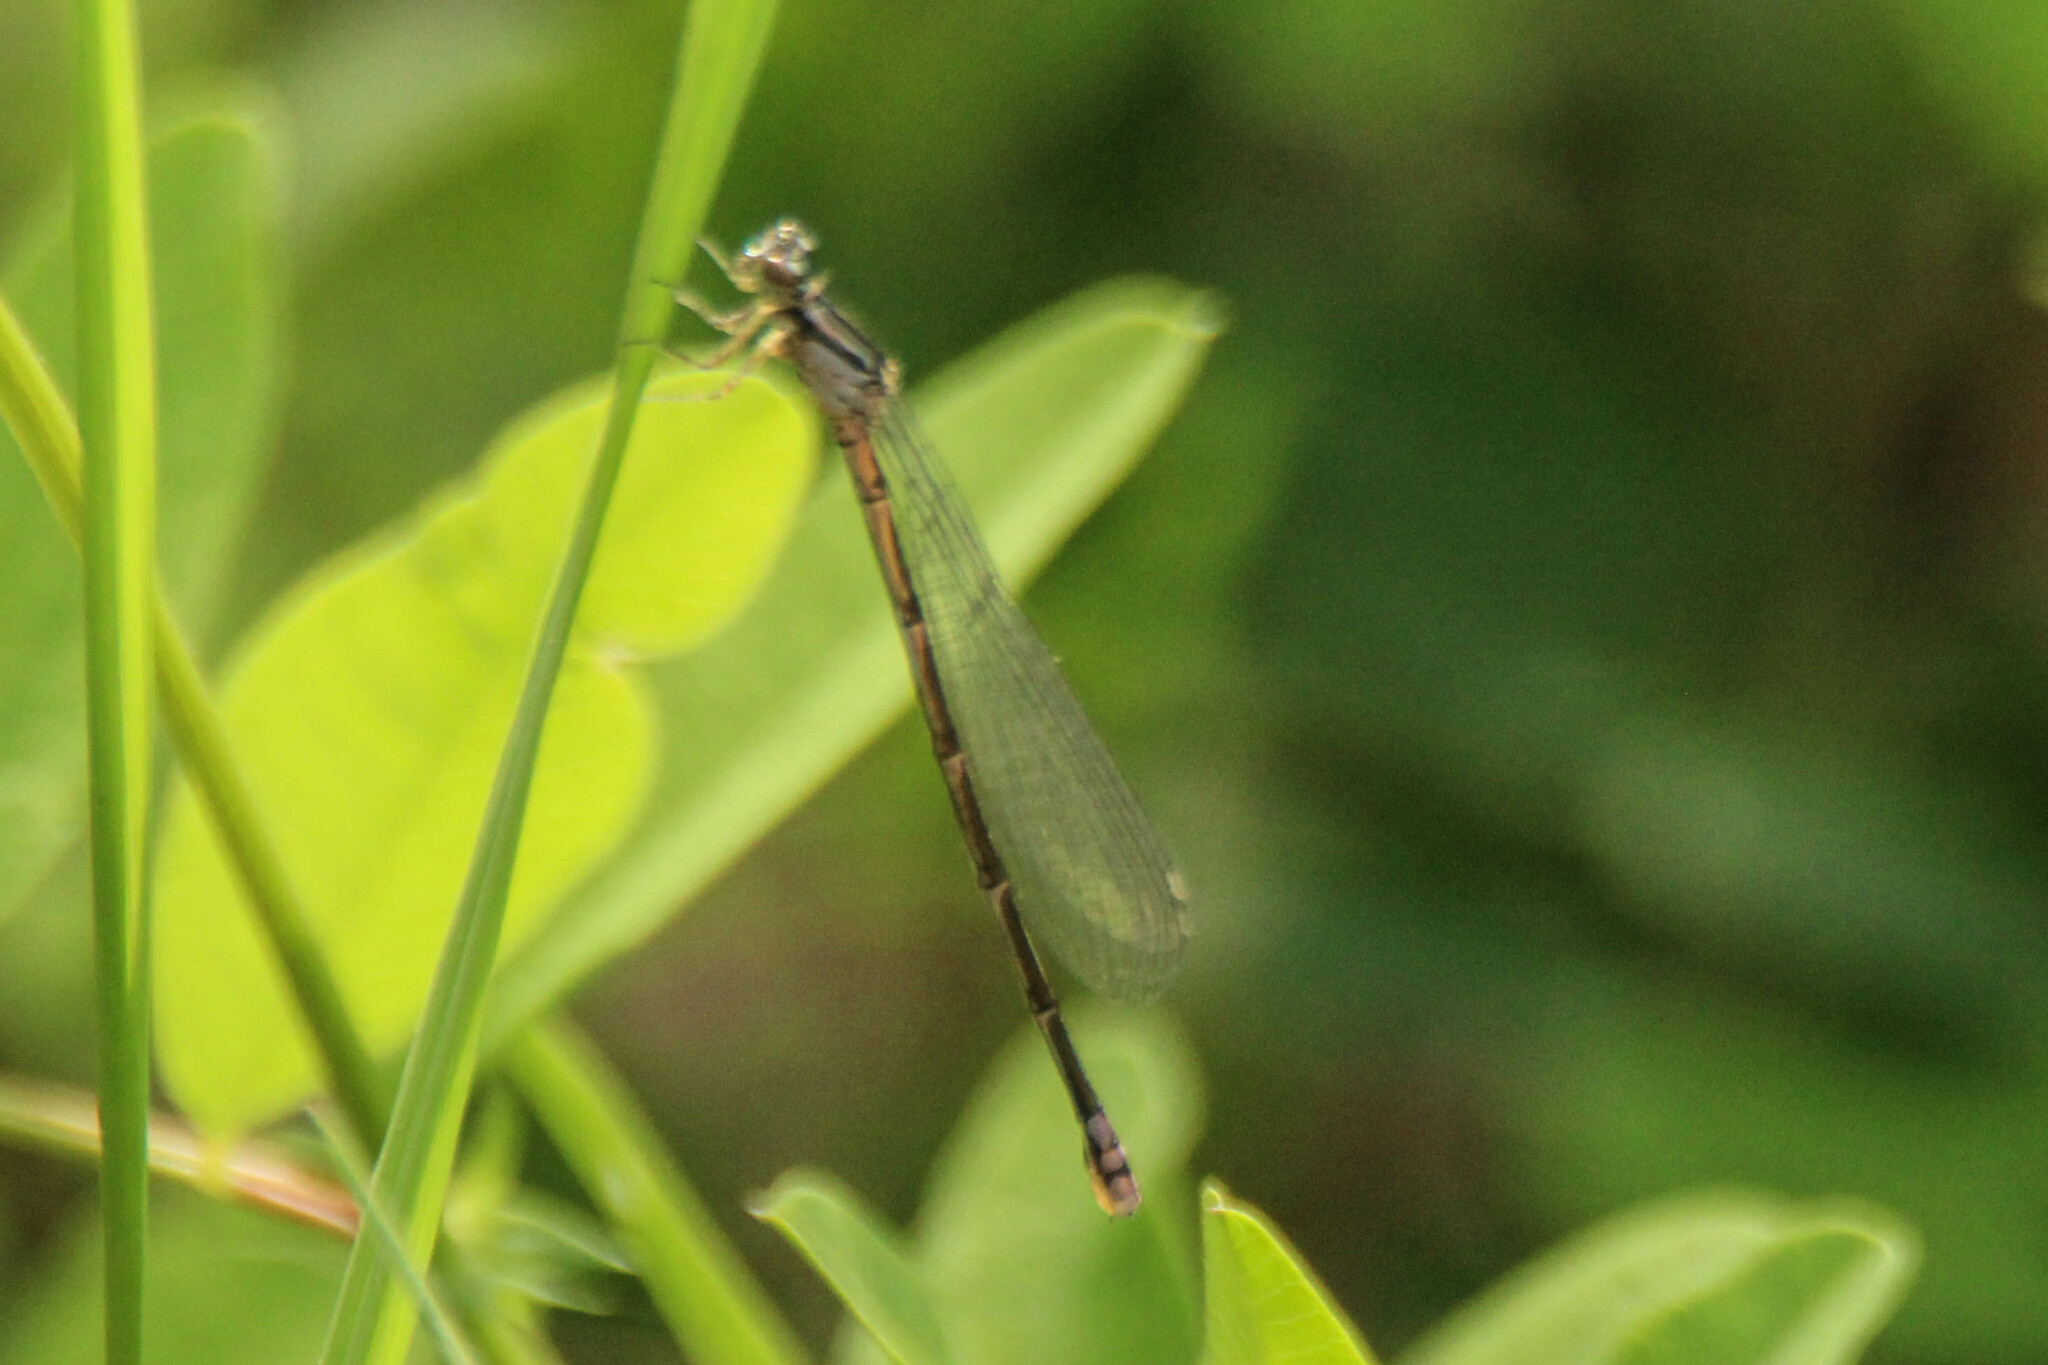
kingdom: Animalia
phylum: Arthropoda
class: Insecta
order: Odonata
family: Coenagrionidae
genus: Coenagrion
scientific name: Coenagrion johanssoni
